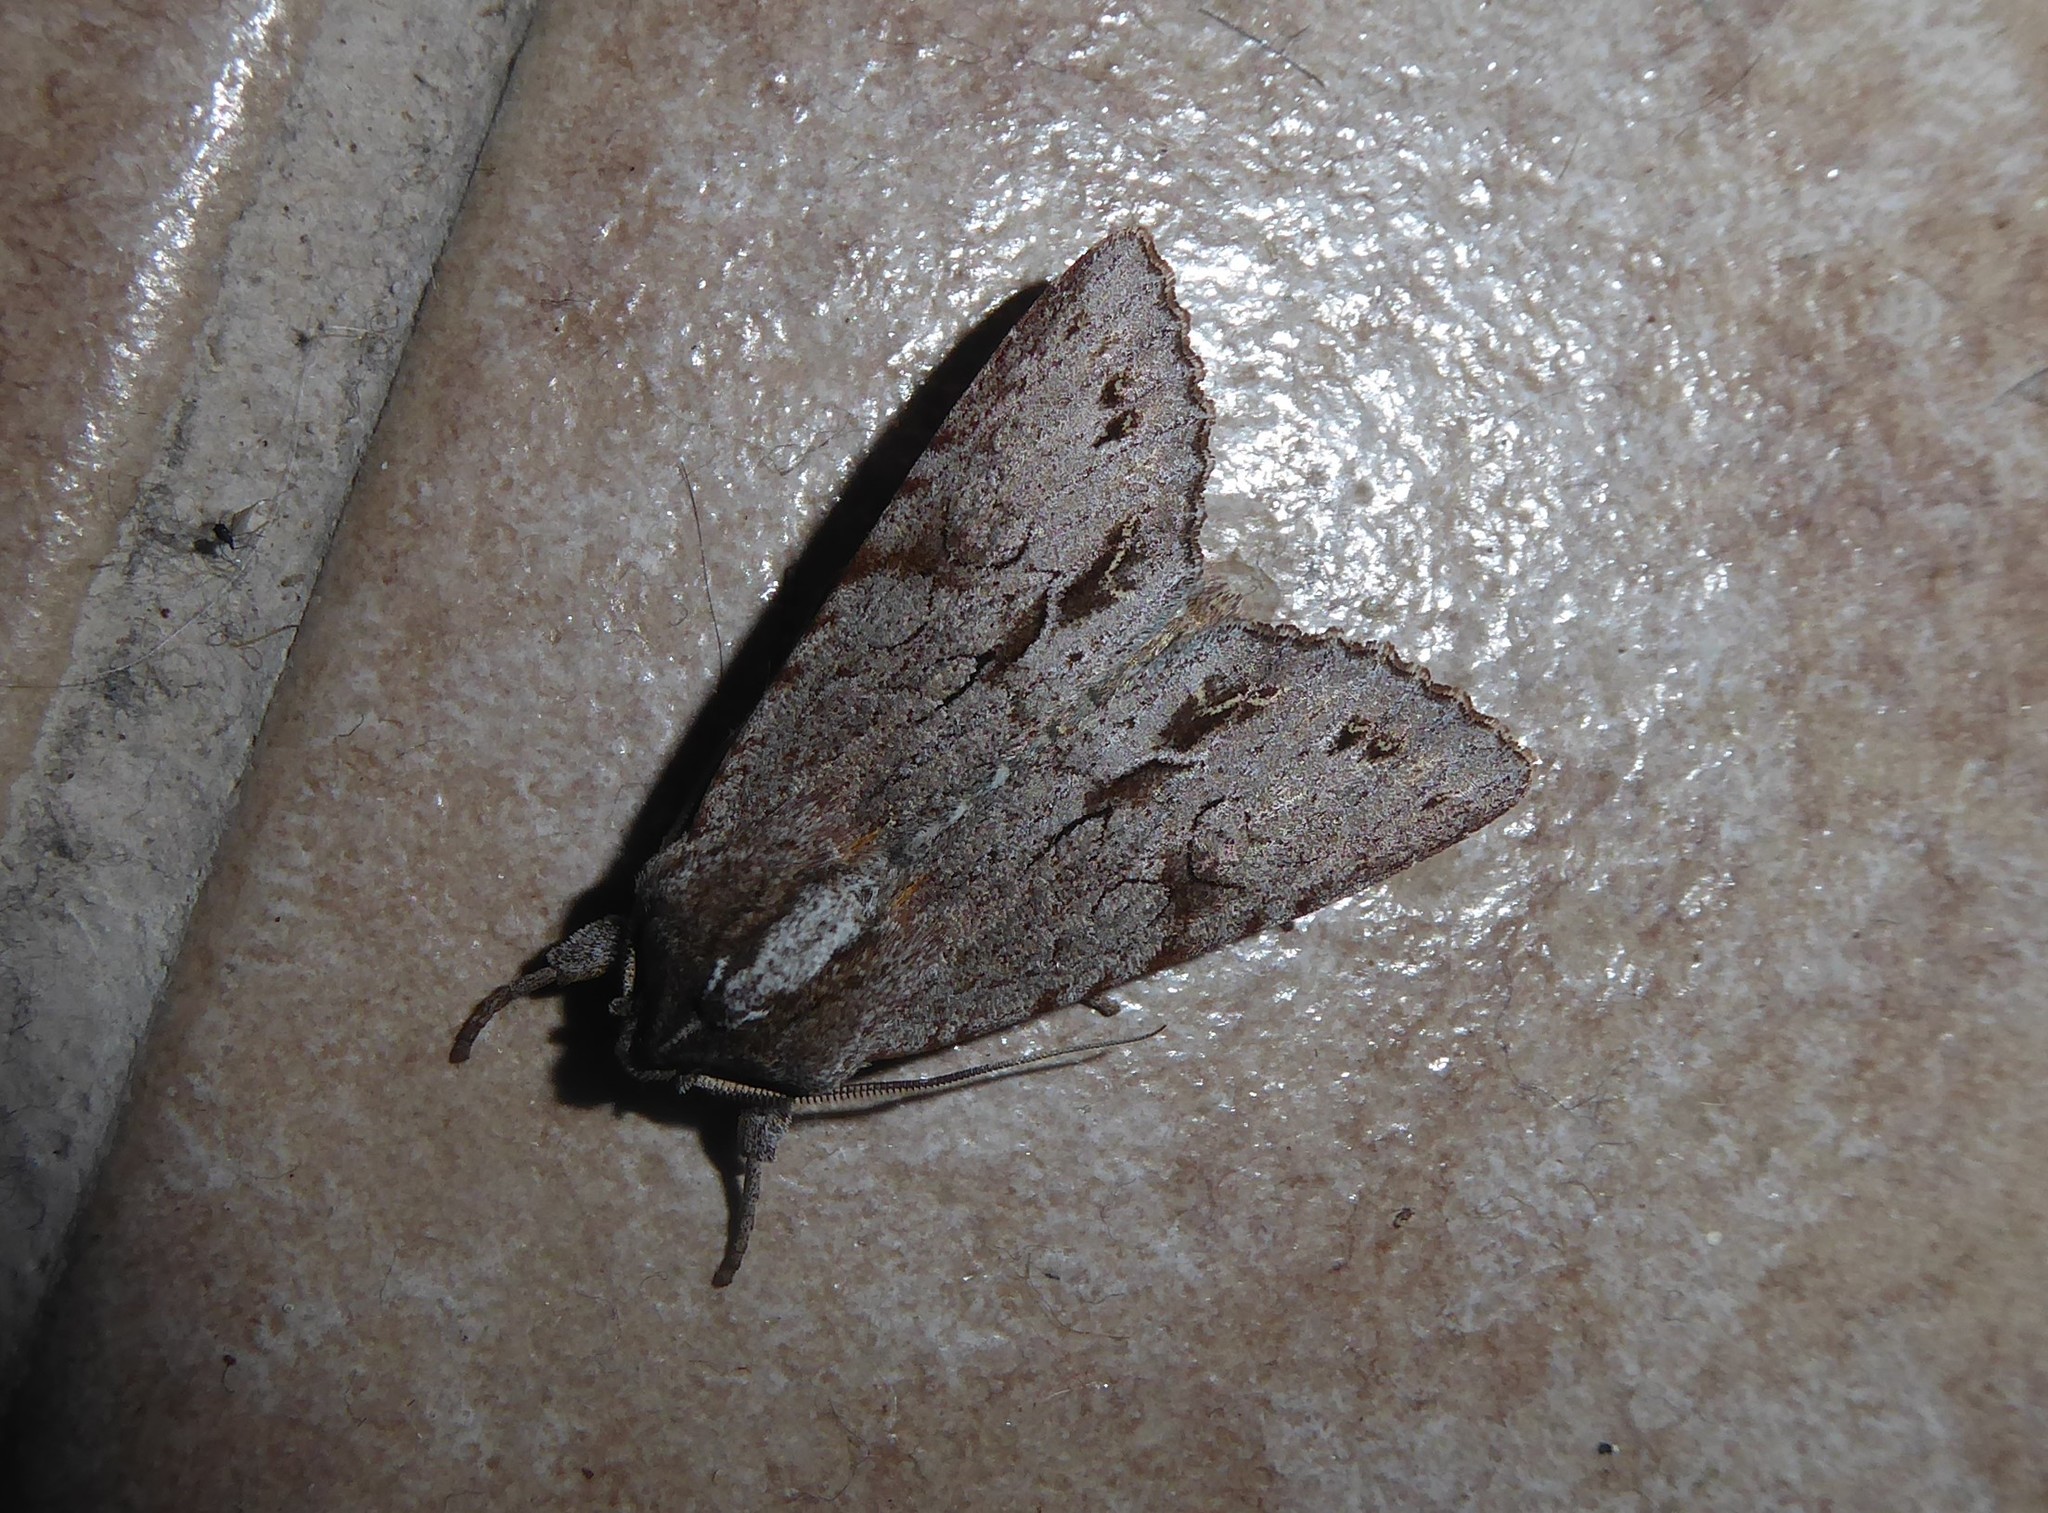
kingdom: Animalia
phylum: Arthropoda
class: Insecta
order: Lepidoptera
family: Noctuidae
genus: Ichneutica
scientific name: Ichneutica
